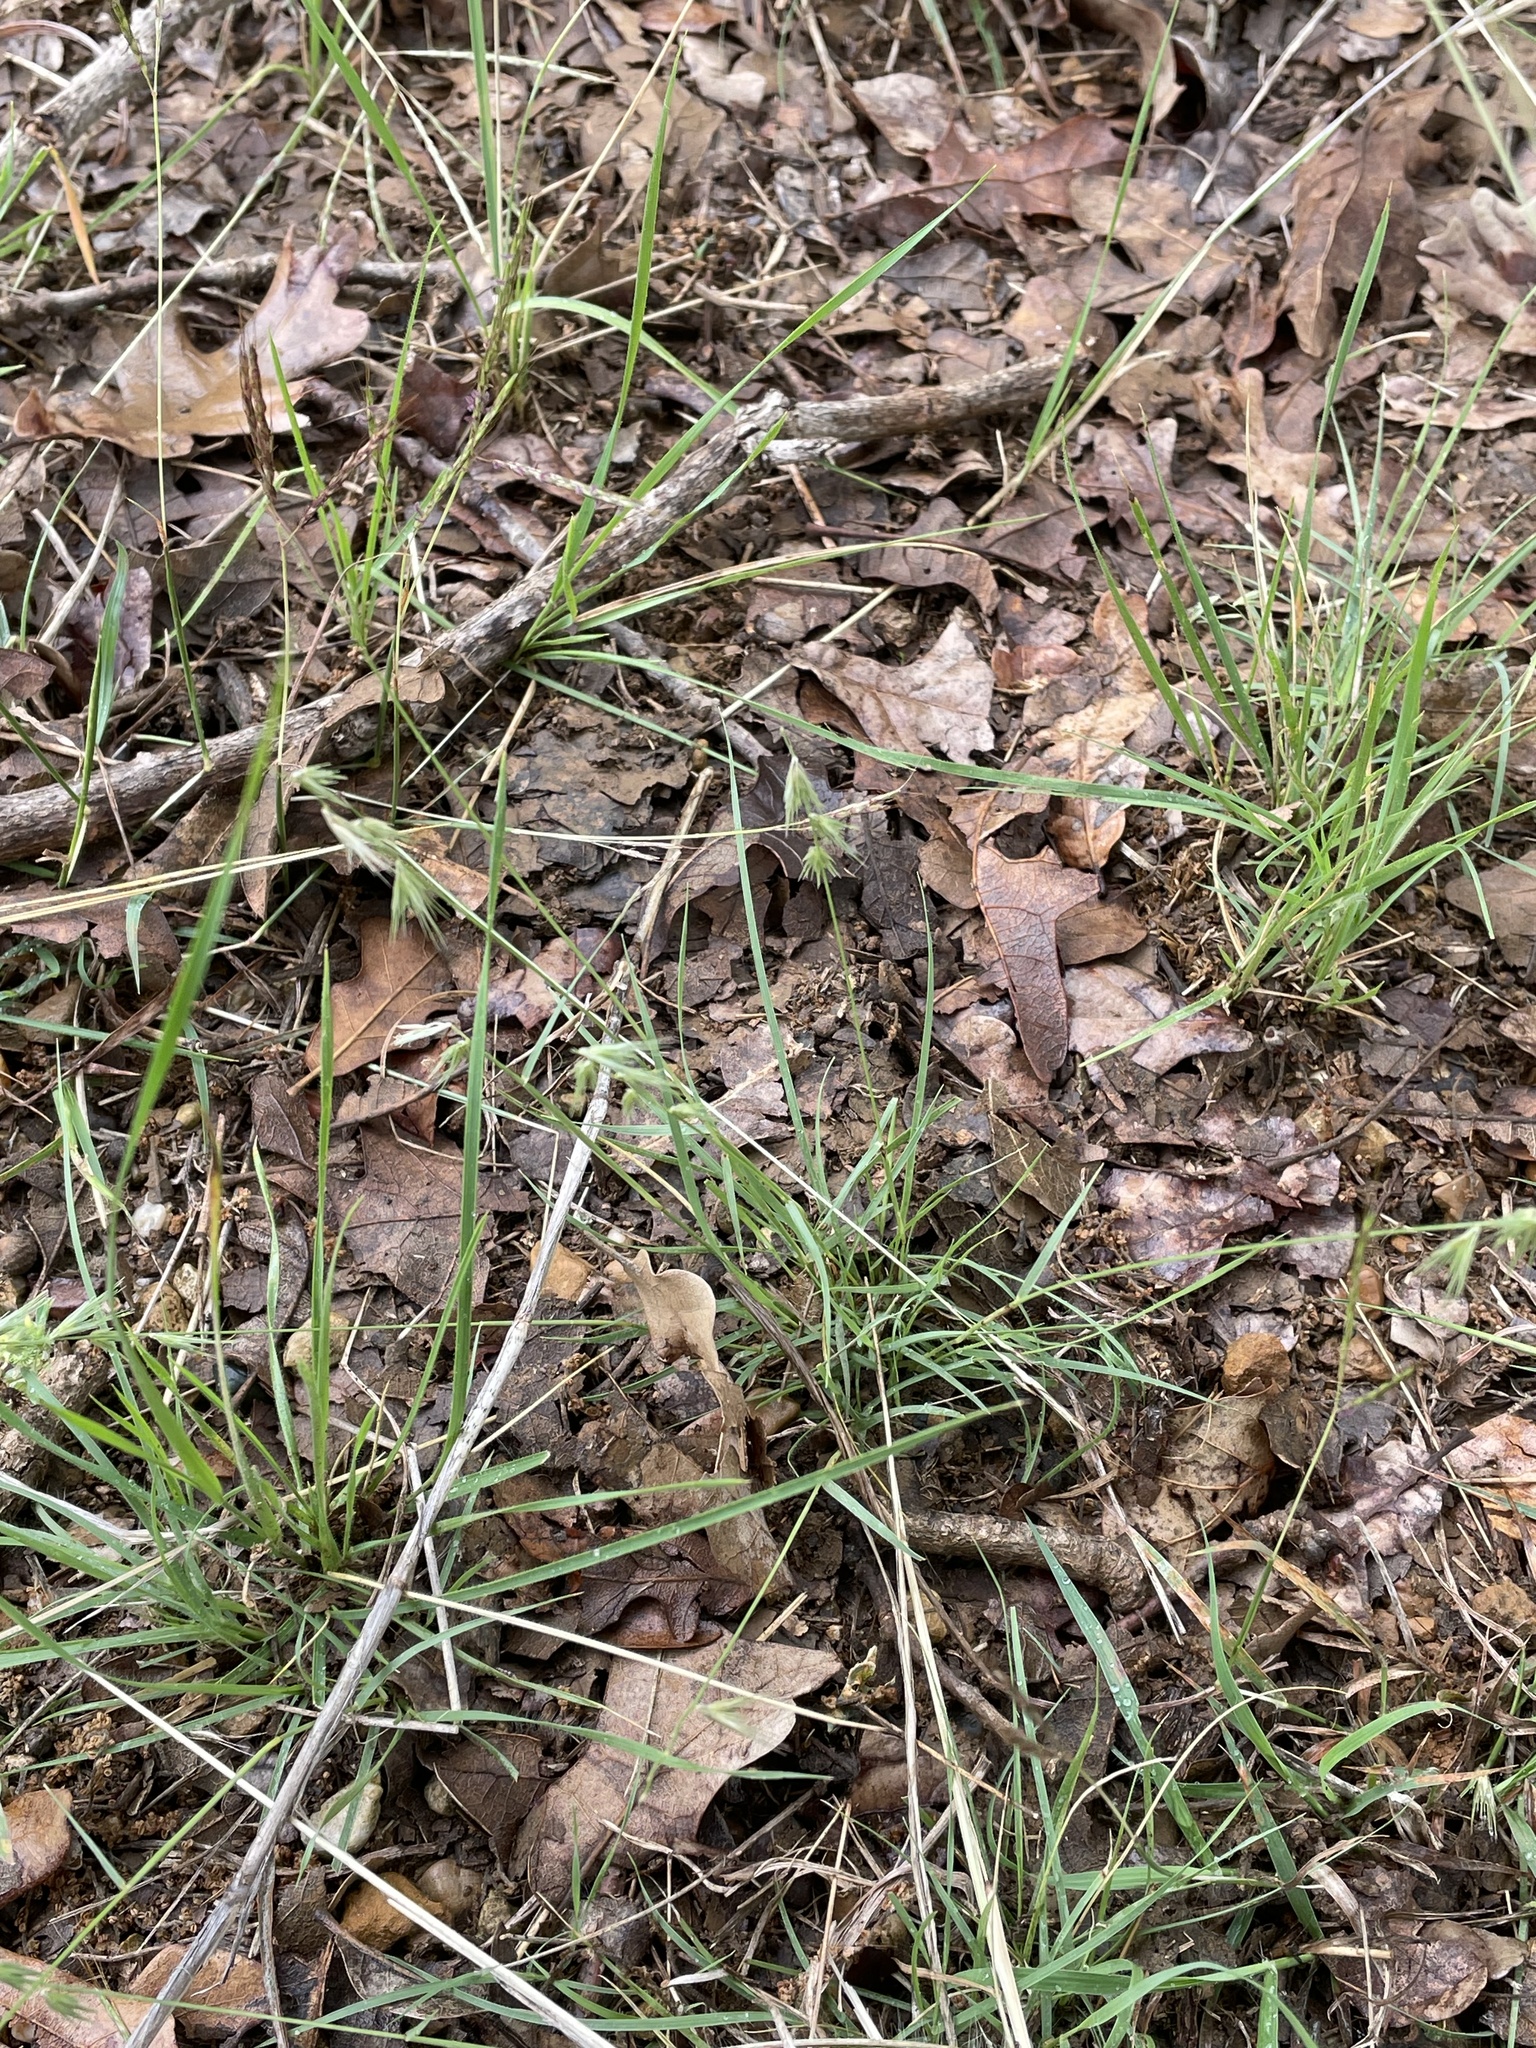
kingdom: Plantae
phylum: Tracheophyta
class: Liliopsida
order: Poales
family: Poaceae
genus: Bouteloua
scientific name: Bouteloua rigidiseta
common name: Texas grama
